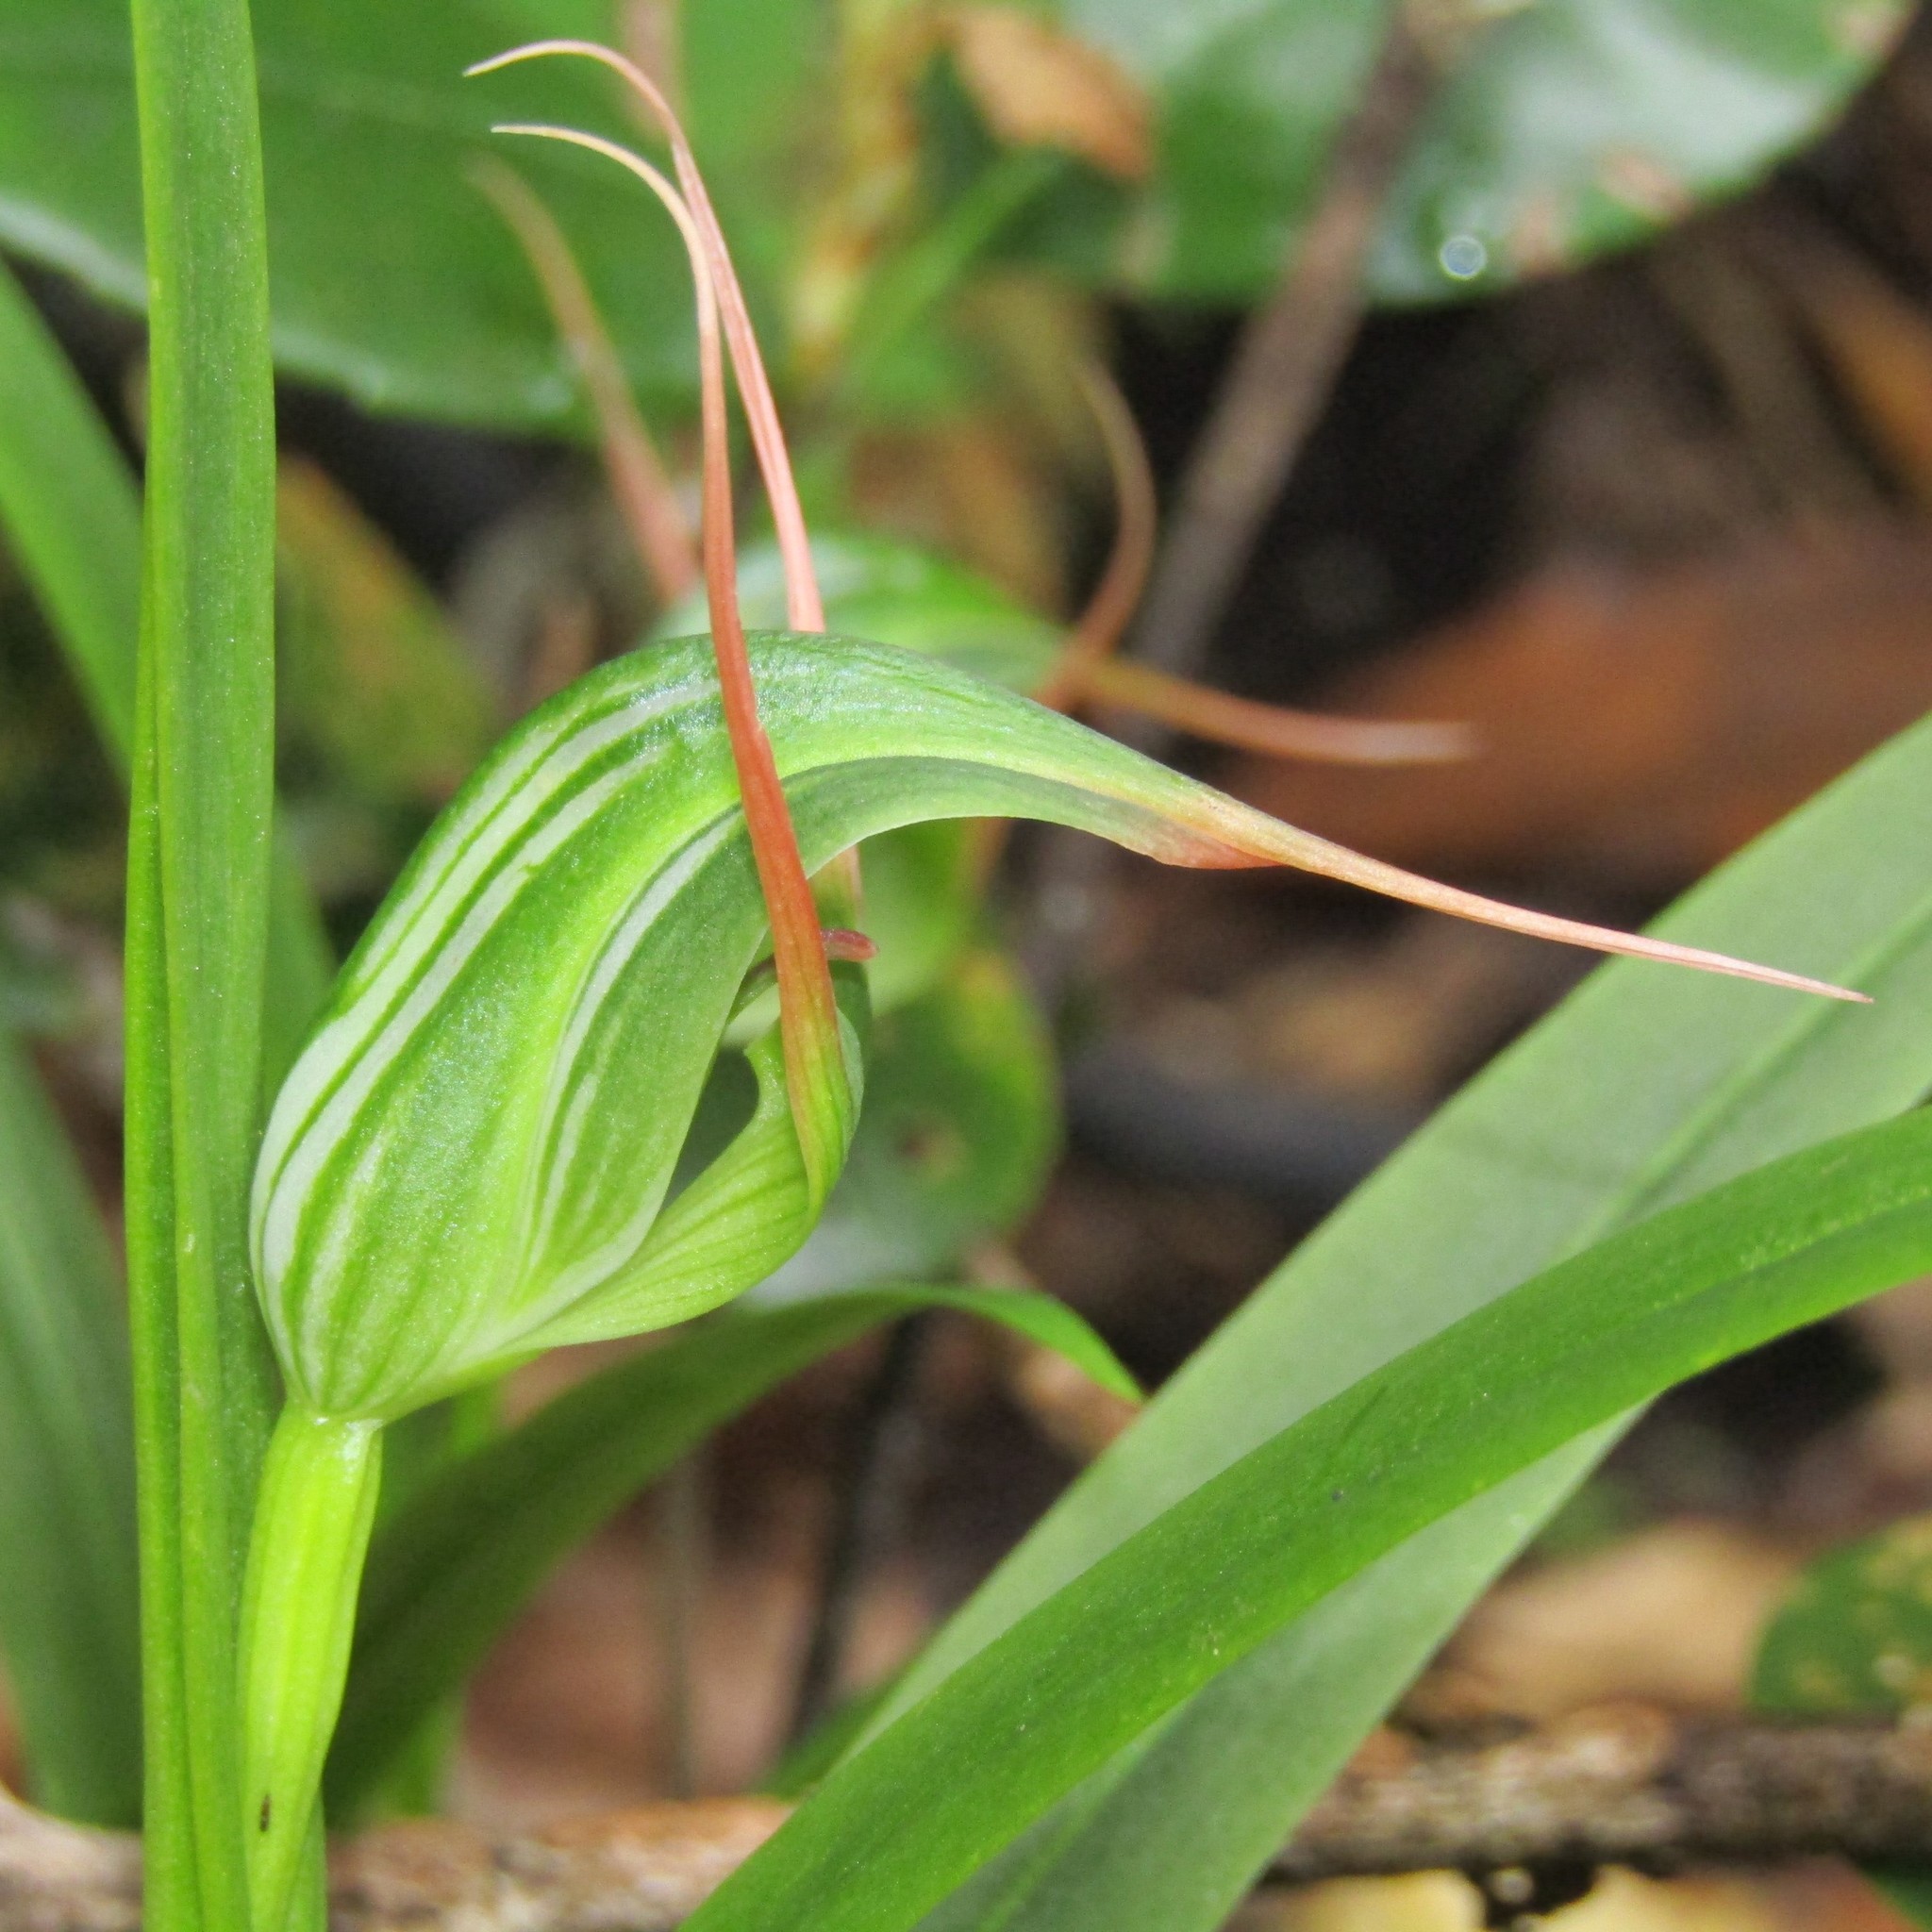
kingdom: Plantae
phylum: Tracheophyta
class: Liliopsida
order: Asparagales
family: Orchidaceae
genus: Pterostylis
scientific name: Pterostylis banksii
